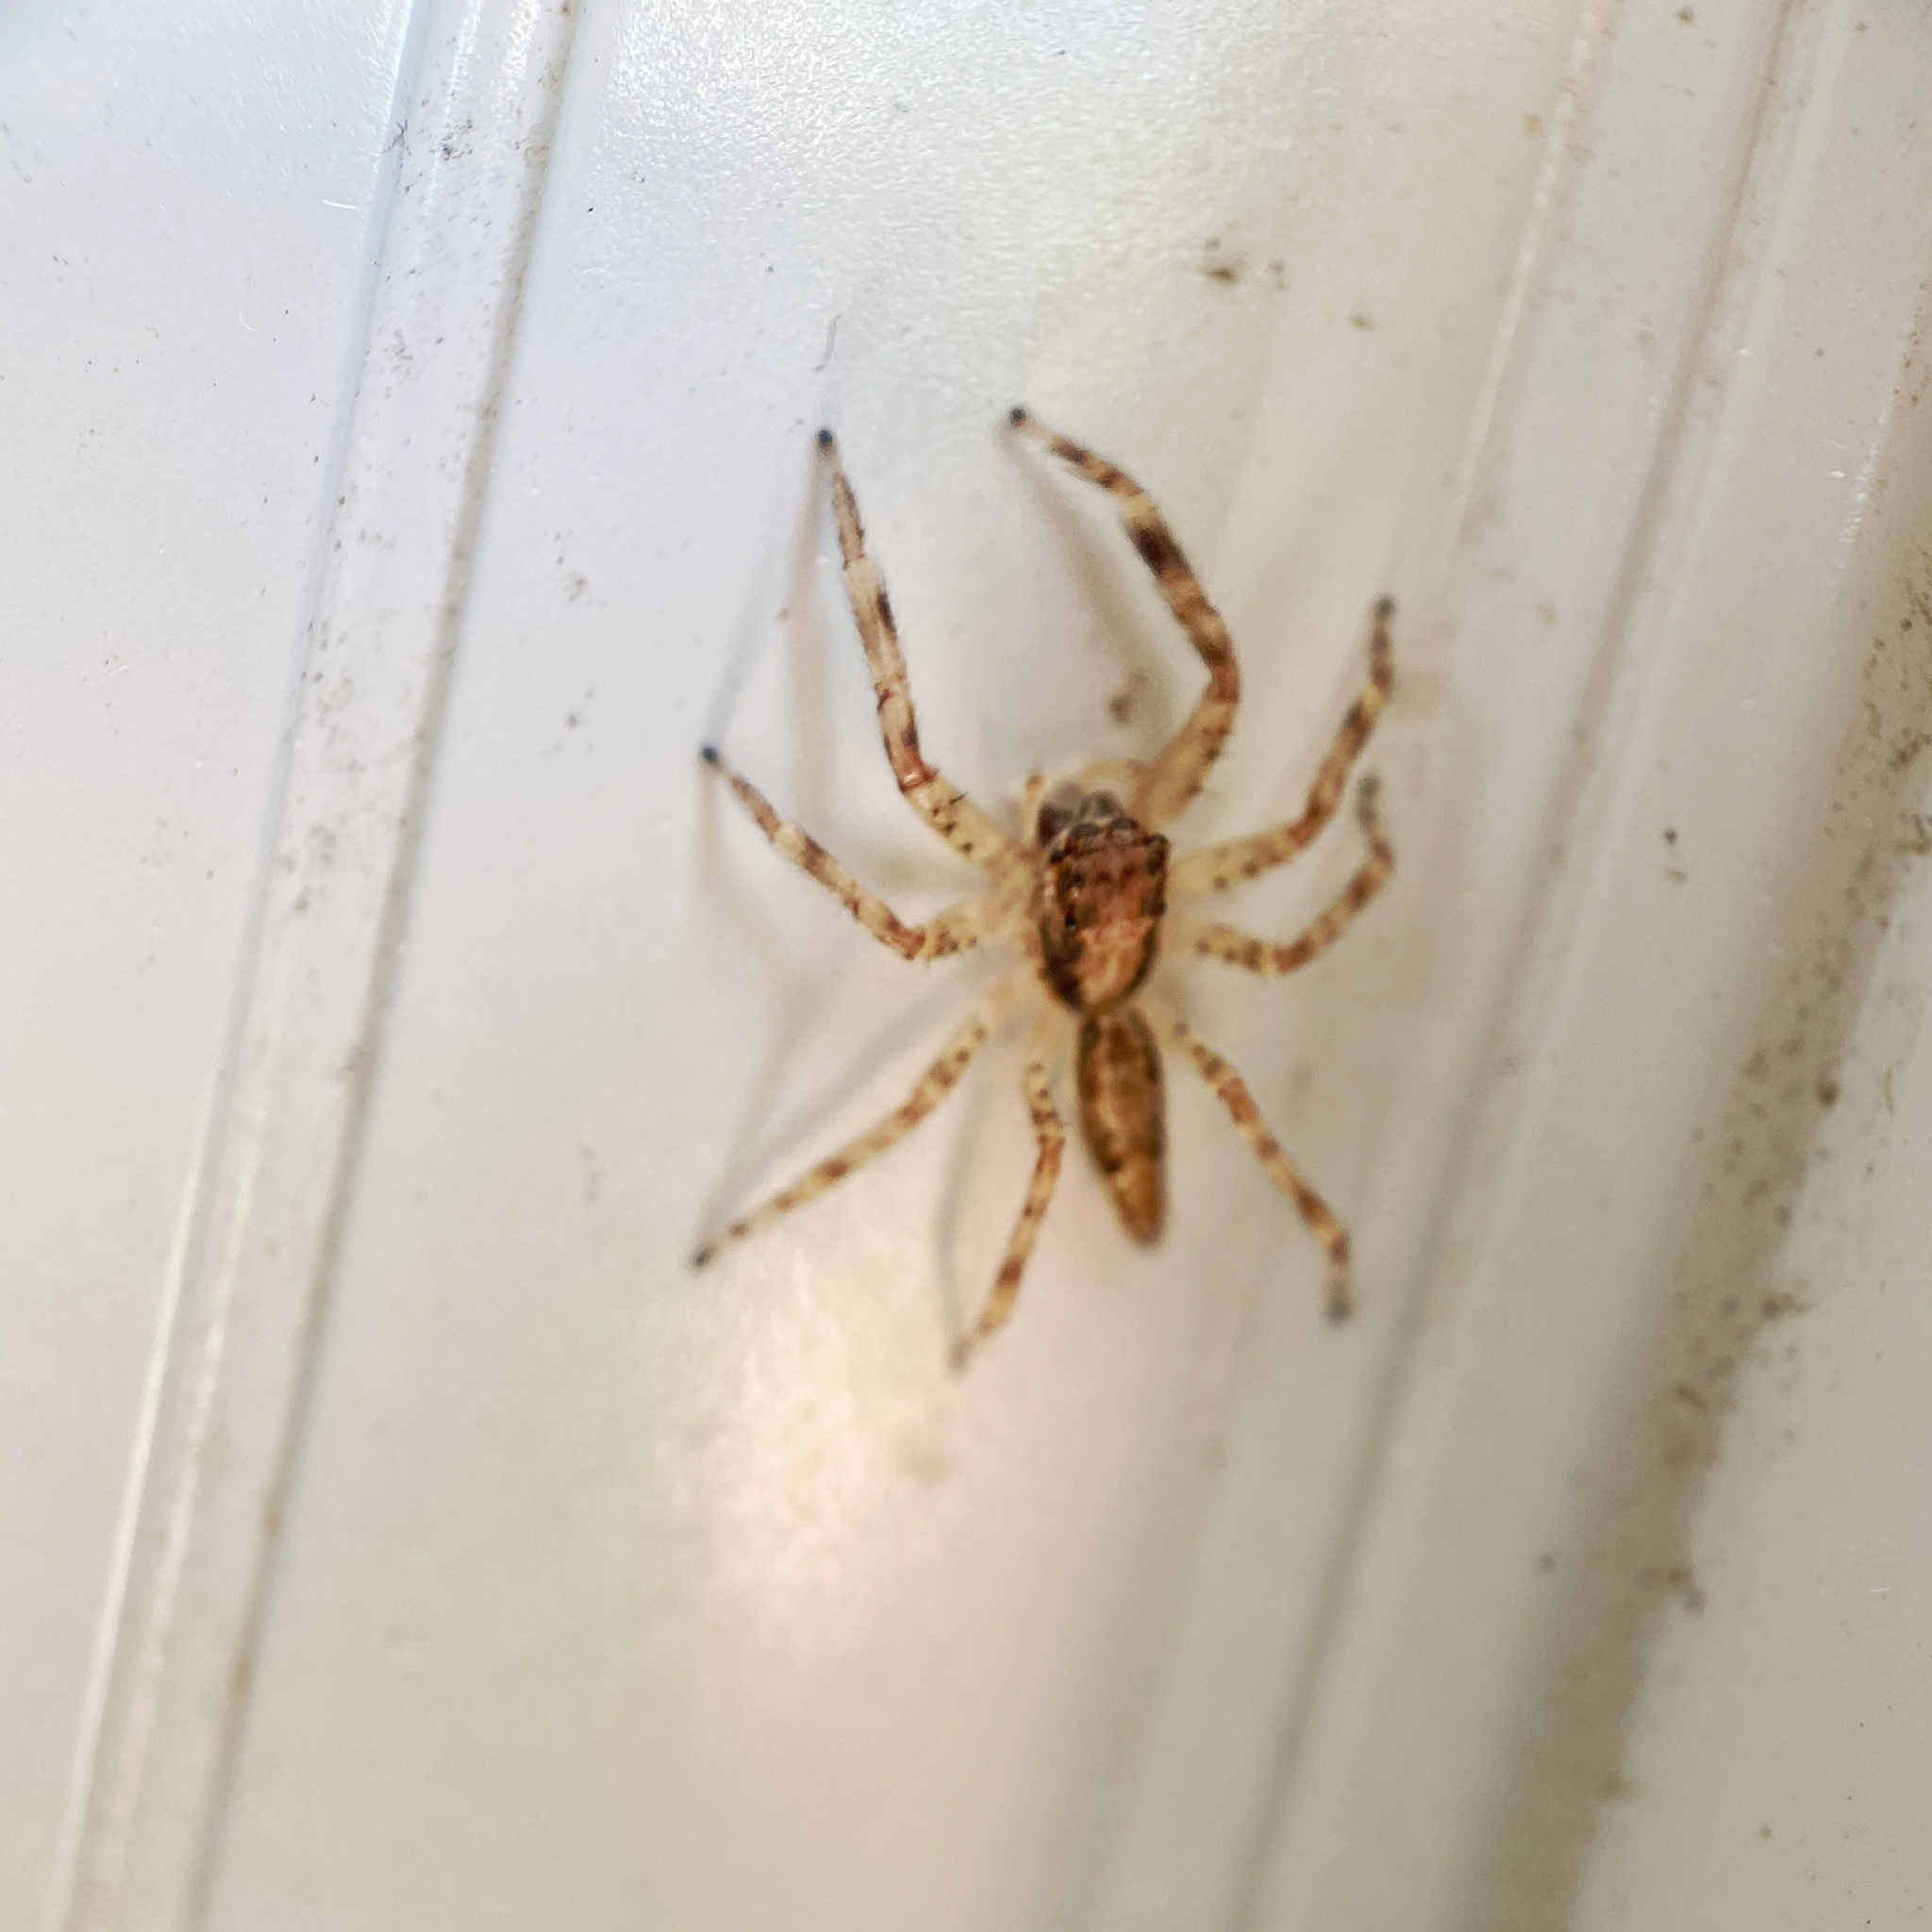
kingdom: Animalia
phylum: Arthropoda
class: Arachnida
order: Araneae
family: Salticidae
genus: Helpis
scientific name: Helpis minitabunda
